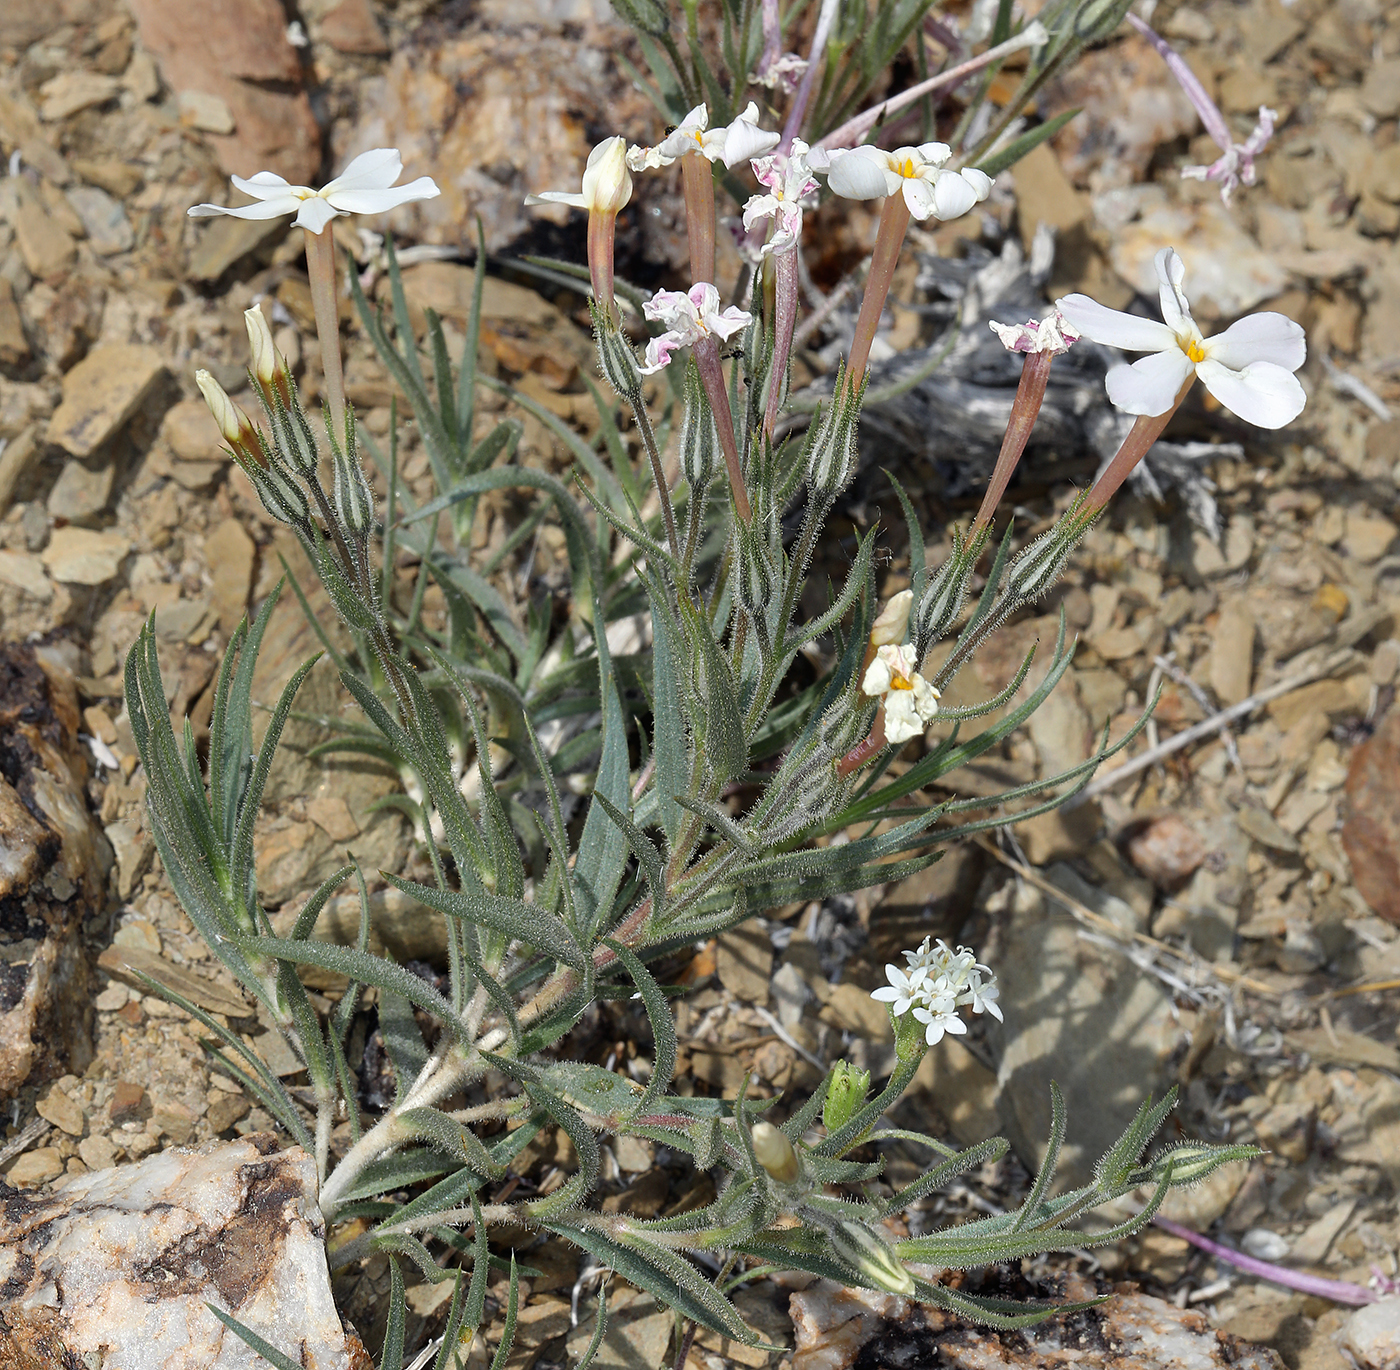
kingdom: Plantae
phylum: Tracheophyta
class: Magnoliopsida
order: Ericales
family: Polemoniaceae
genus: Phlox
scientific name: Phlox longifolia
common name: Longleaf phlox
